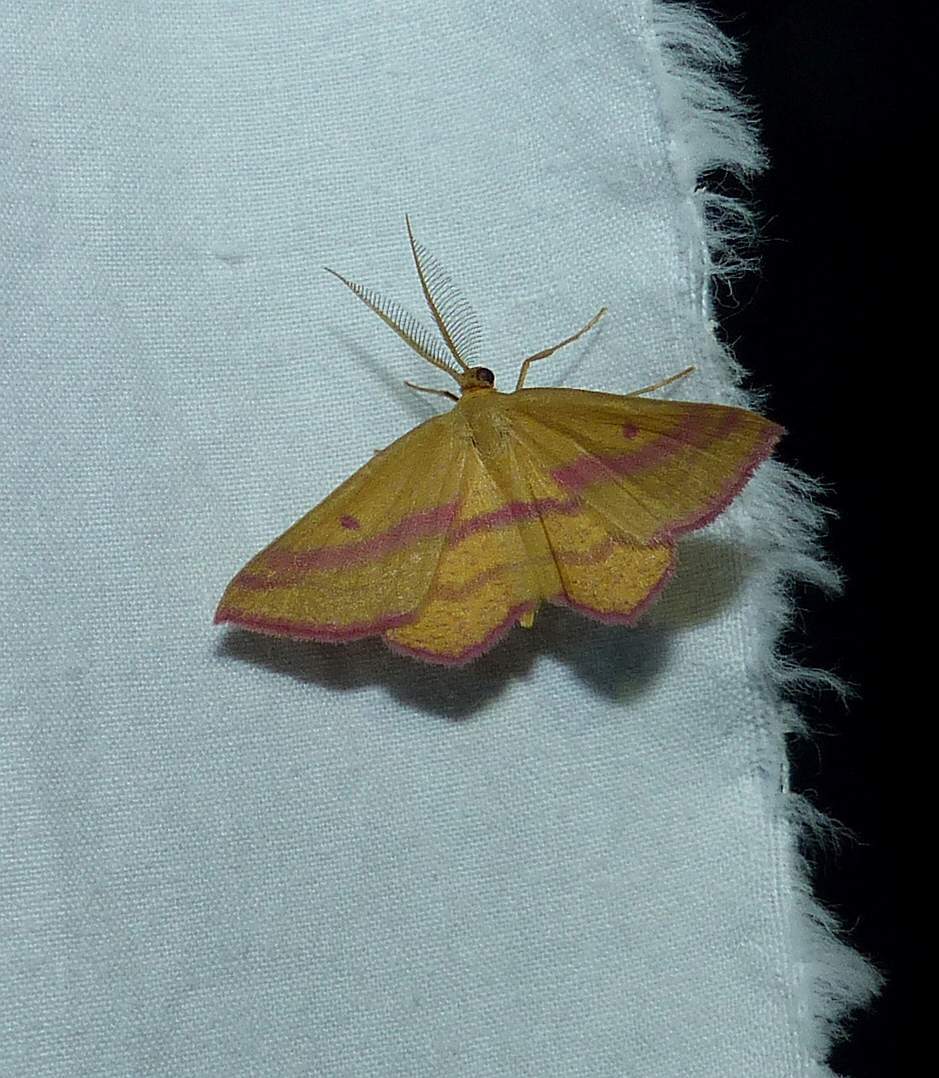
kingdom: Animalia
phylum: Arthropoda
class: Insecta
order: Lepidoptera
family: Geometridae
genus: Haematopis
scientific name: Haematopis grataria
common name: Chickweed geometer
